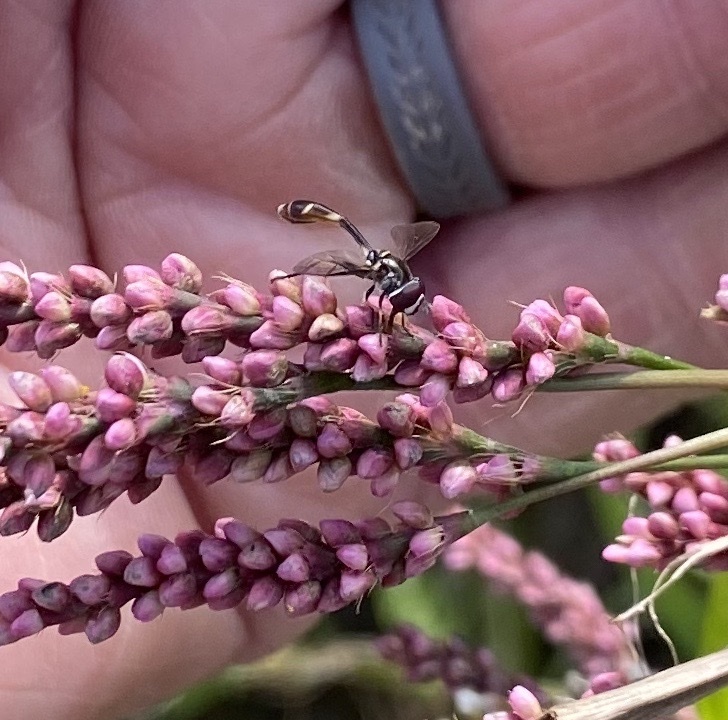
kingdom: Animalia
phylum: Arthropoda
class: Insecta
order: Diptera
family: Syrphidae
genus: Dioprosopa
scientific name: Dioprosopa clavatus
